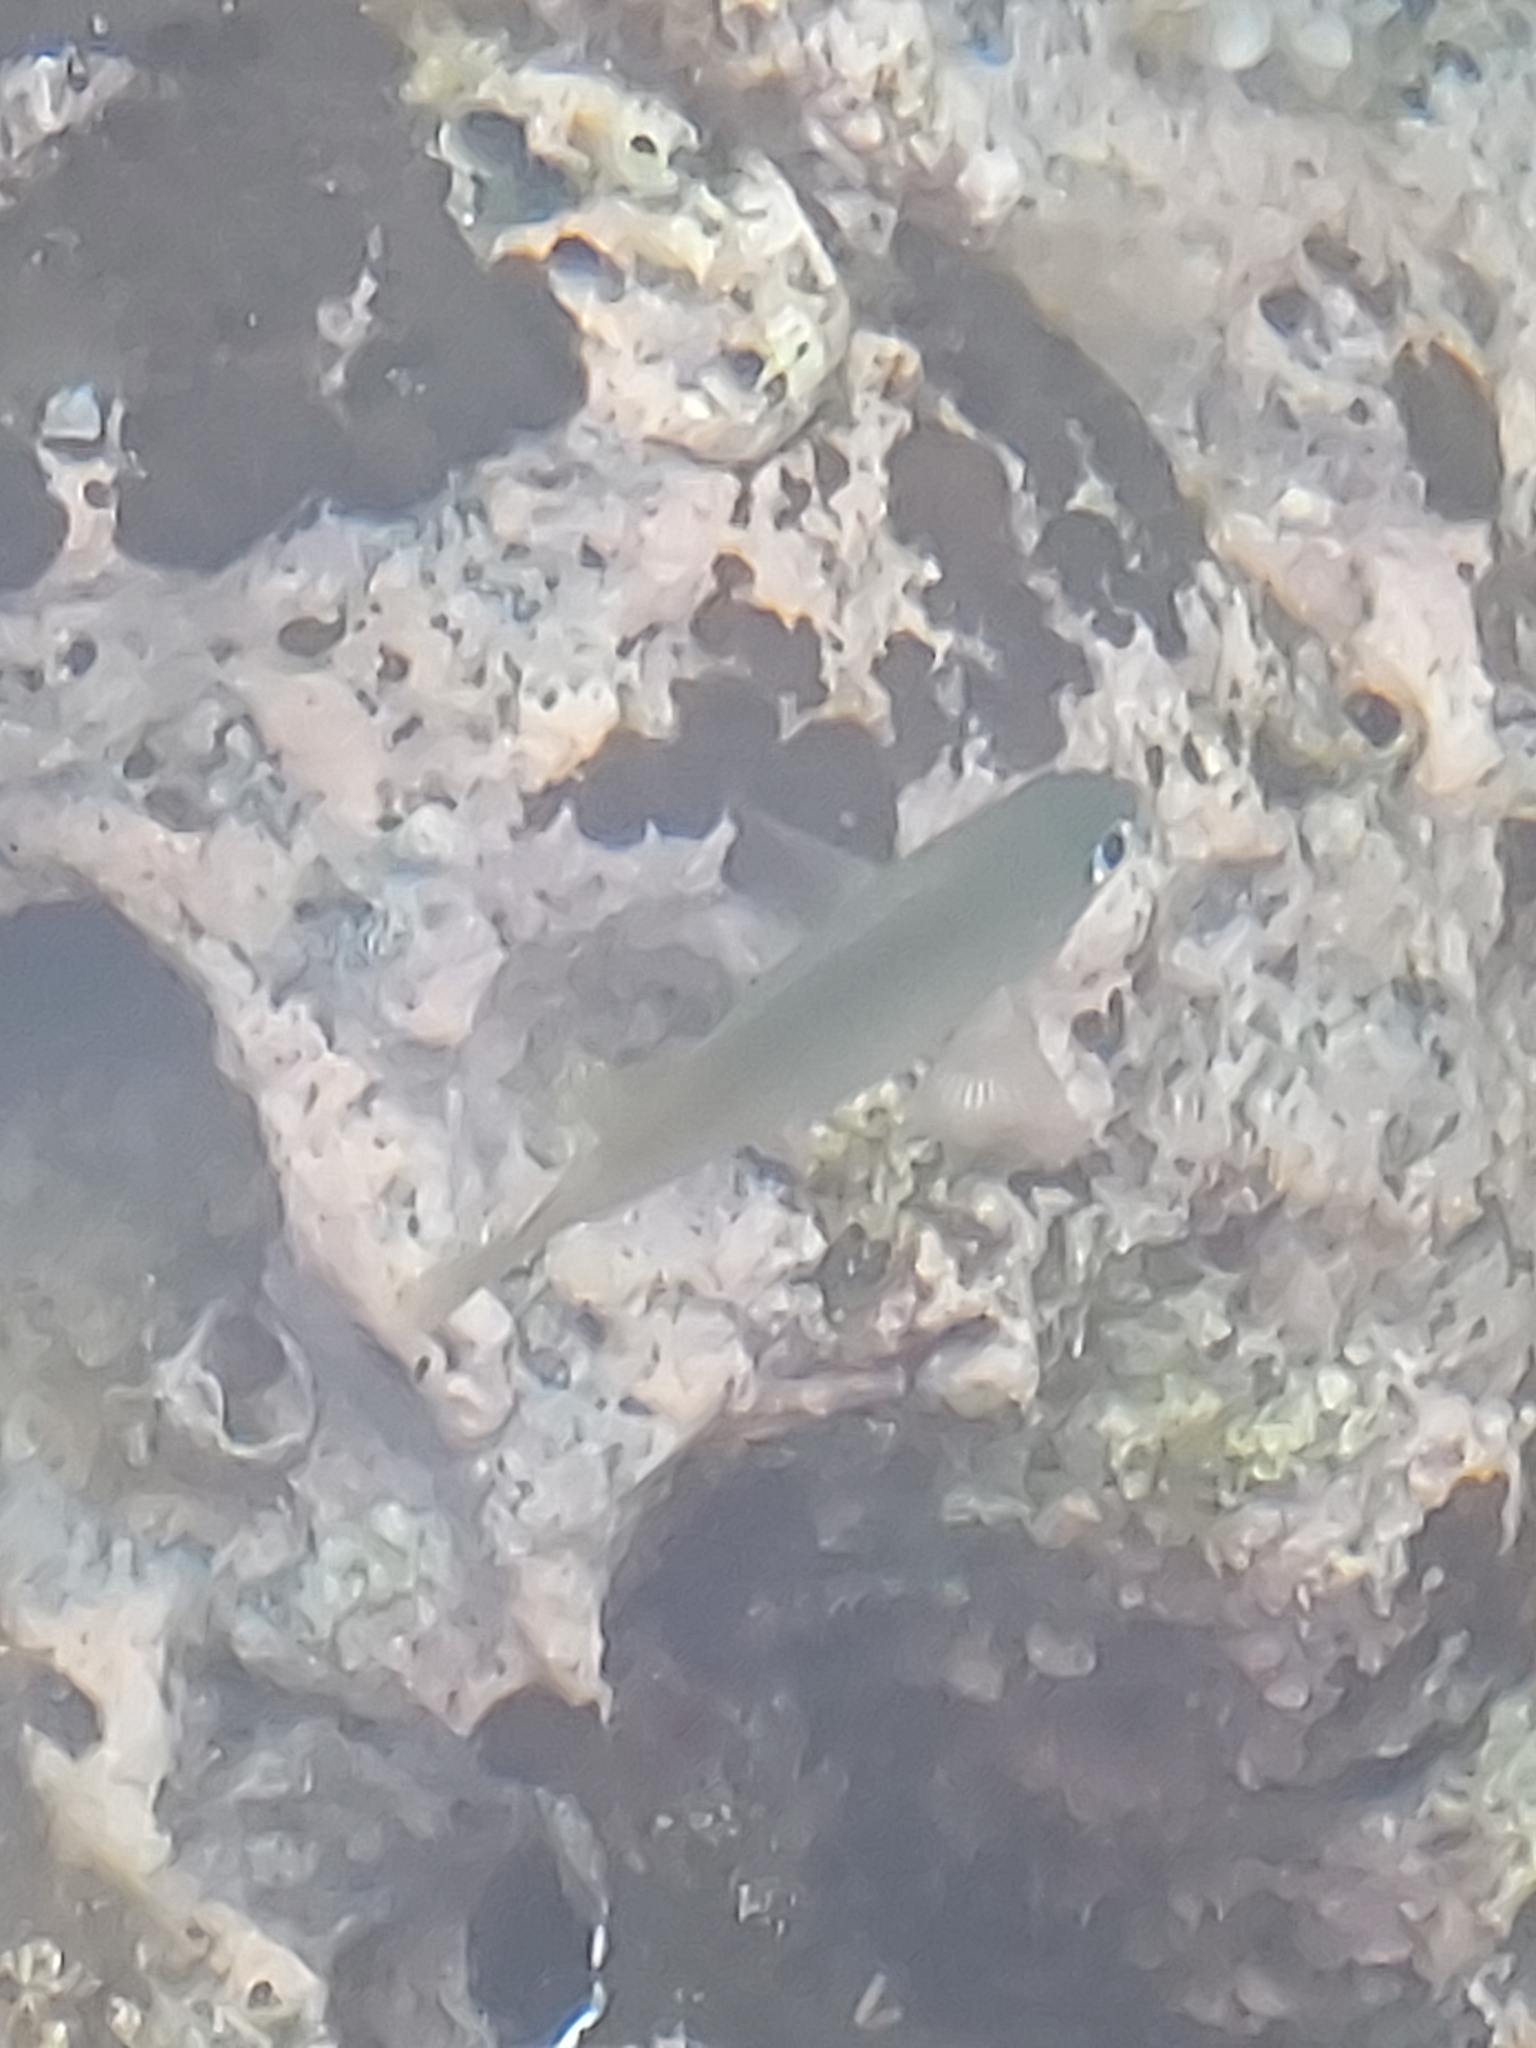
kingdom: Animalia
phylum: Chordata
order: Perciformes
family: Pomacentridae
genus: Plectroglyphidodon
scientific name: Plectroglyphidodon imparipennis
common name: Brighteye damsel
